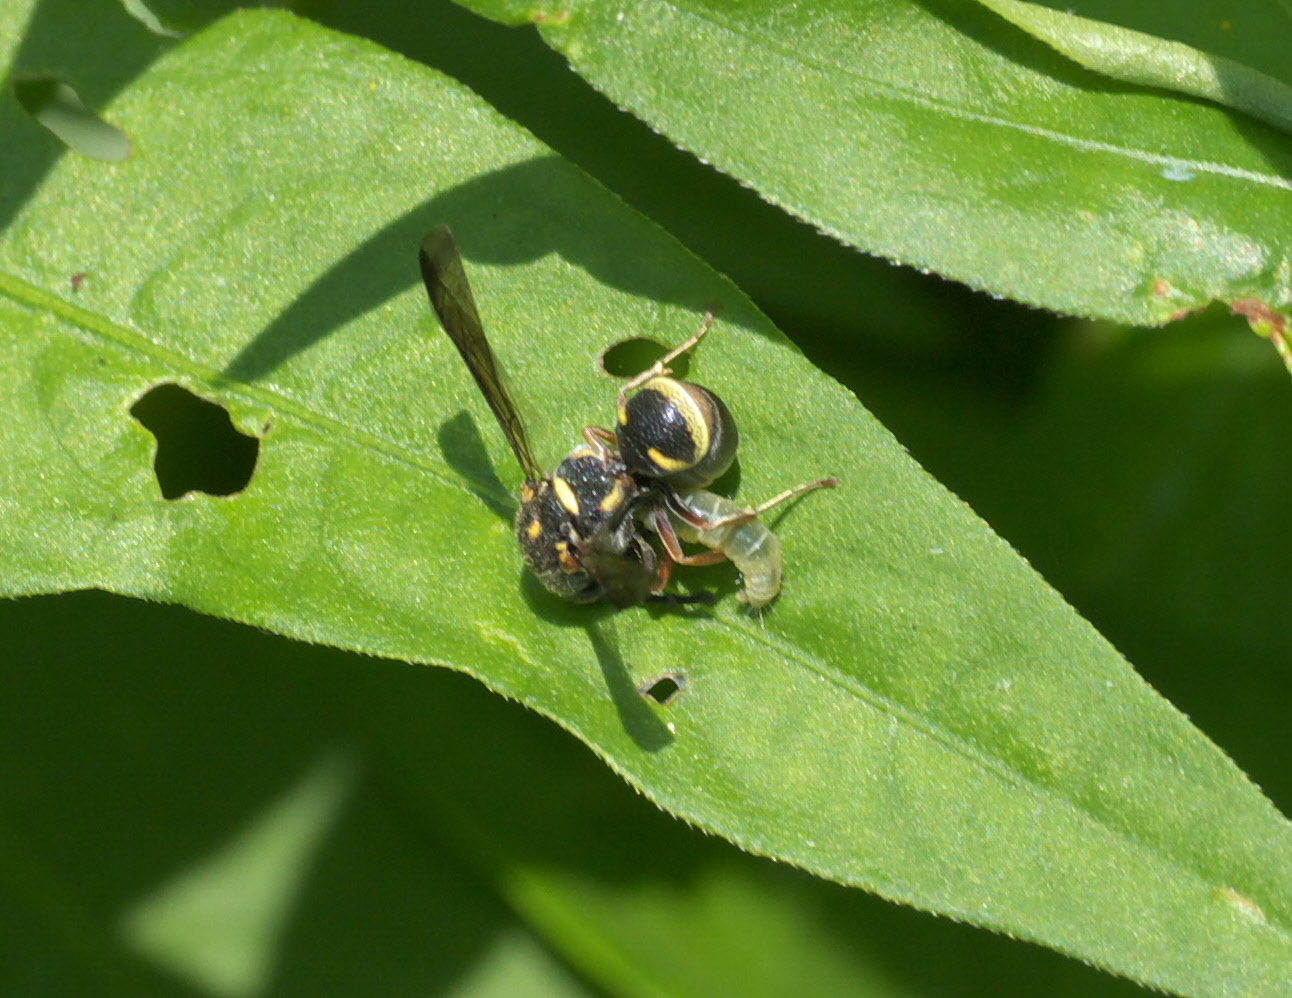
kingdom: Animalia
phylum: Arthropoda
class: Insecta
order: Hymenoptera
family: Eumenidae
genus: Parancistrocerus
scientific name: Parancistrocerus fulvipes
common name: Potter wasp
